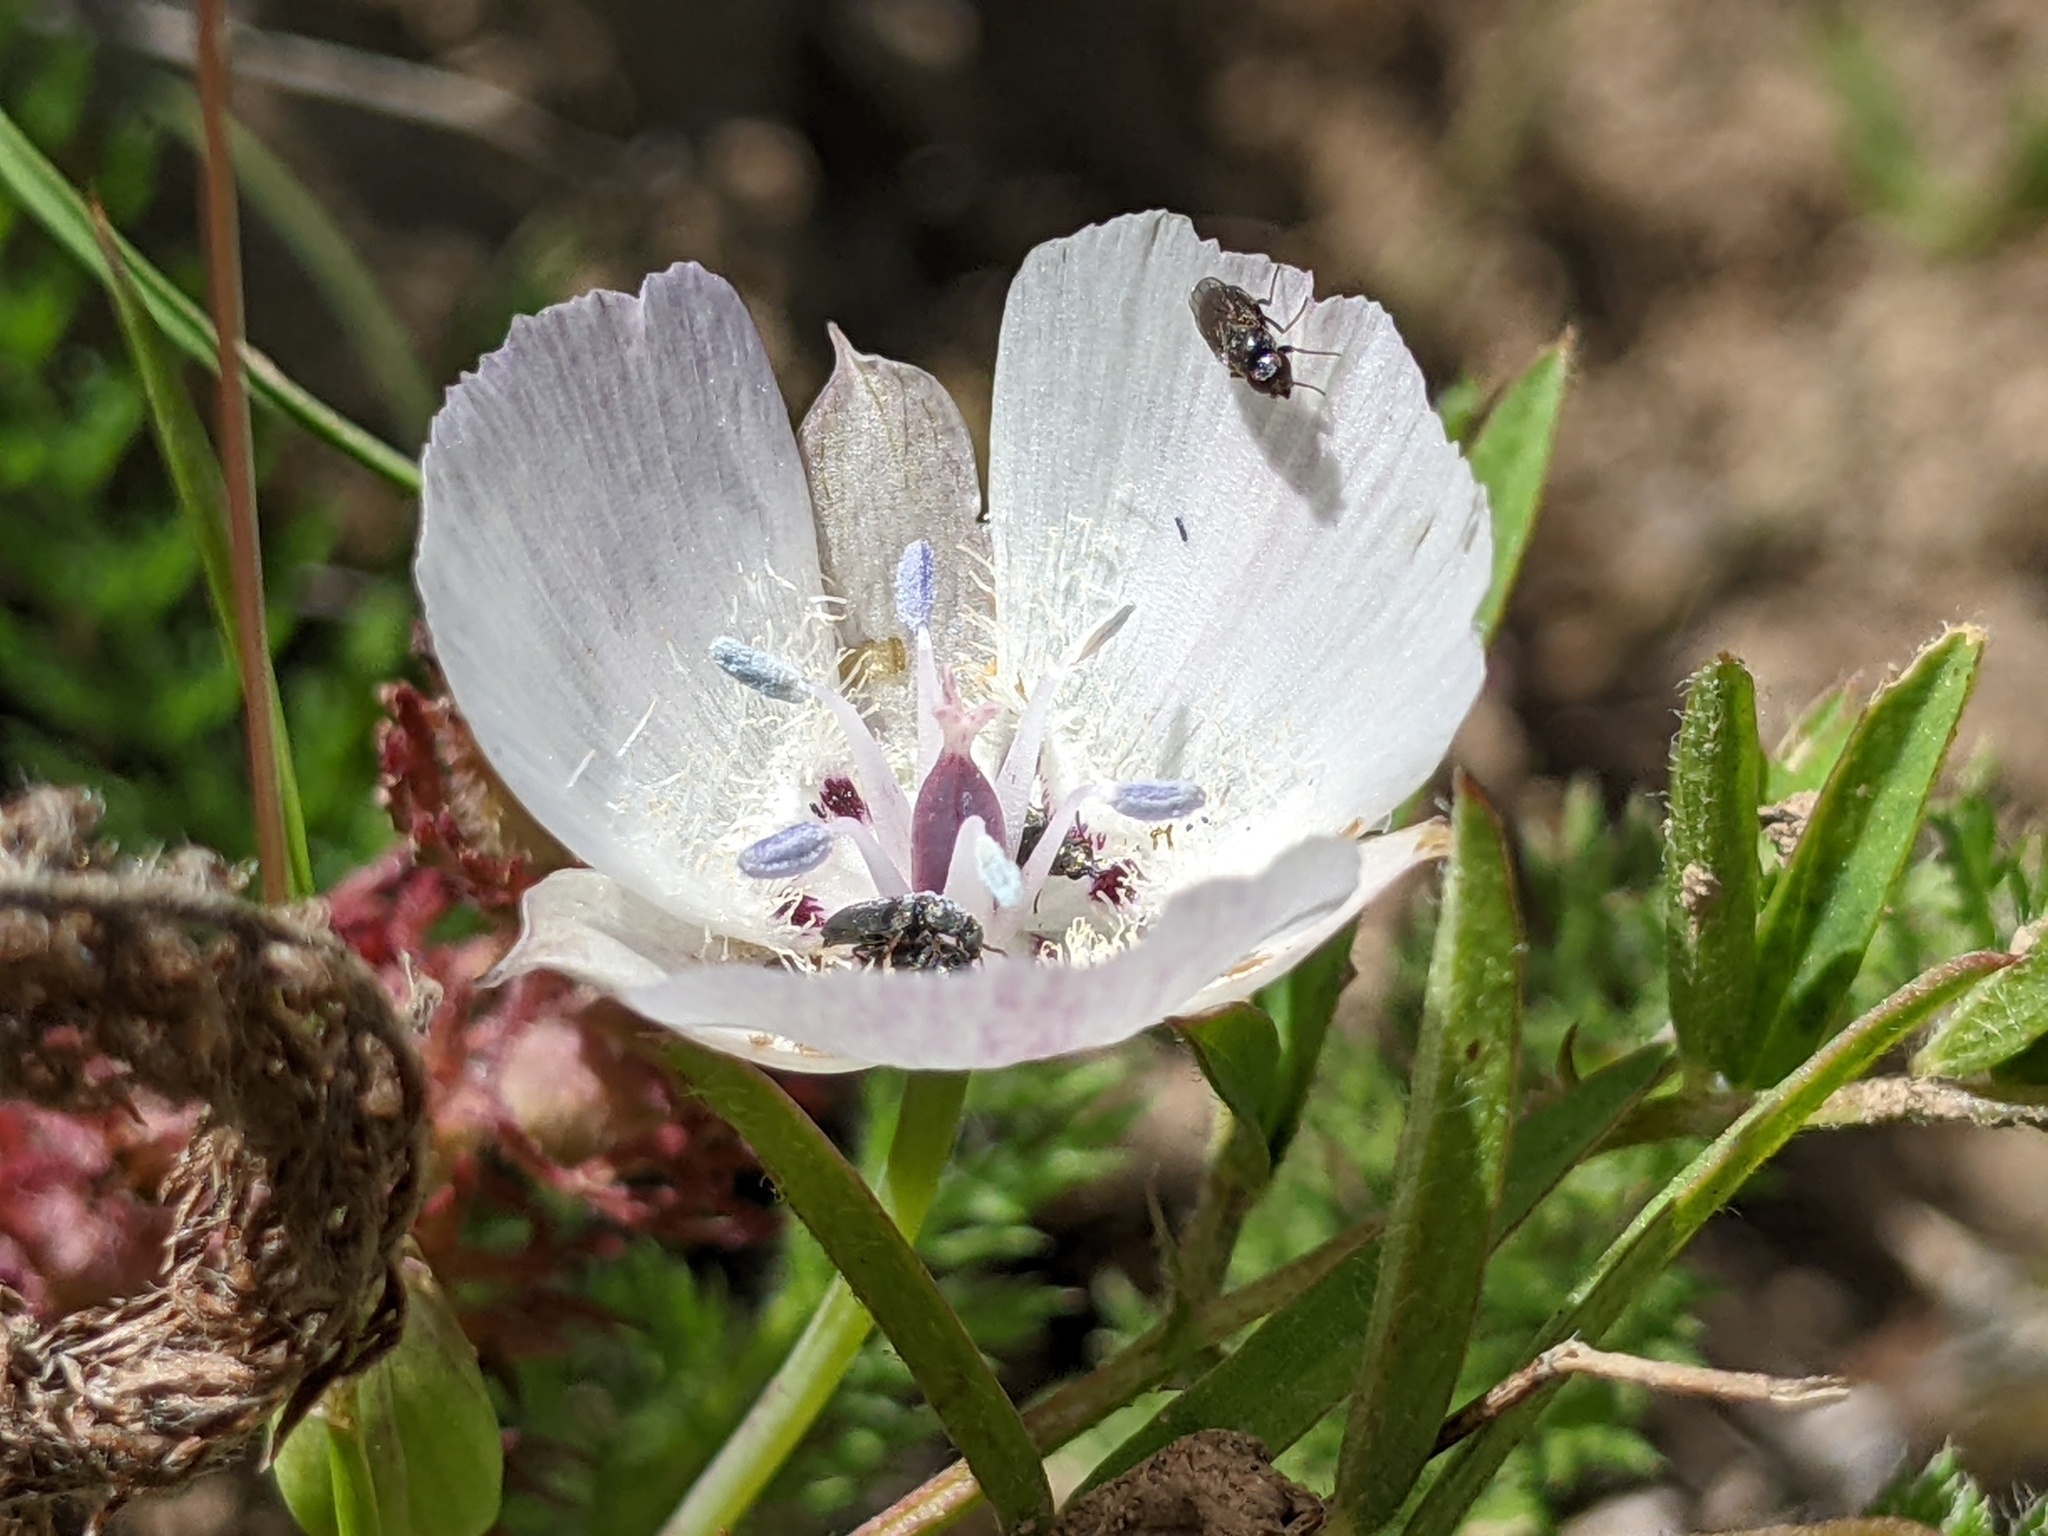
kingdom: Plantae
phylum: Tracheophyta
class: Liliopsida
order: Liliales
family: Liliaceae
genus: Calochortus
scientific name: Calochortus umbellatus
